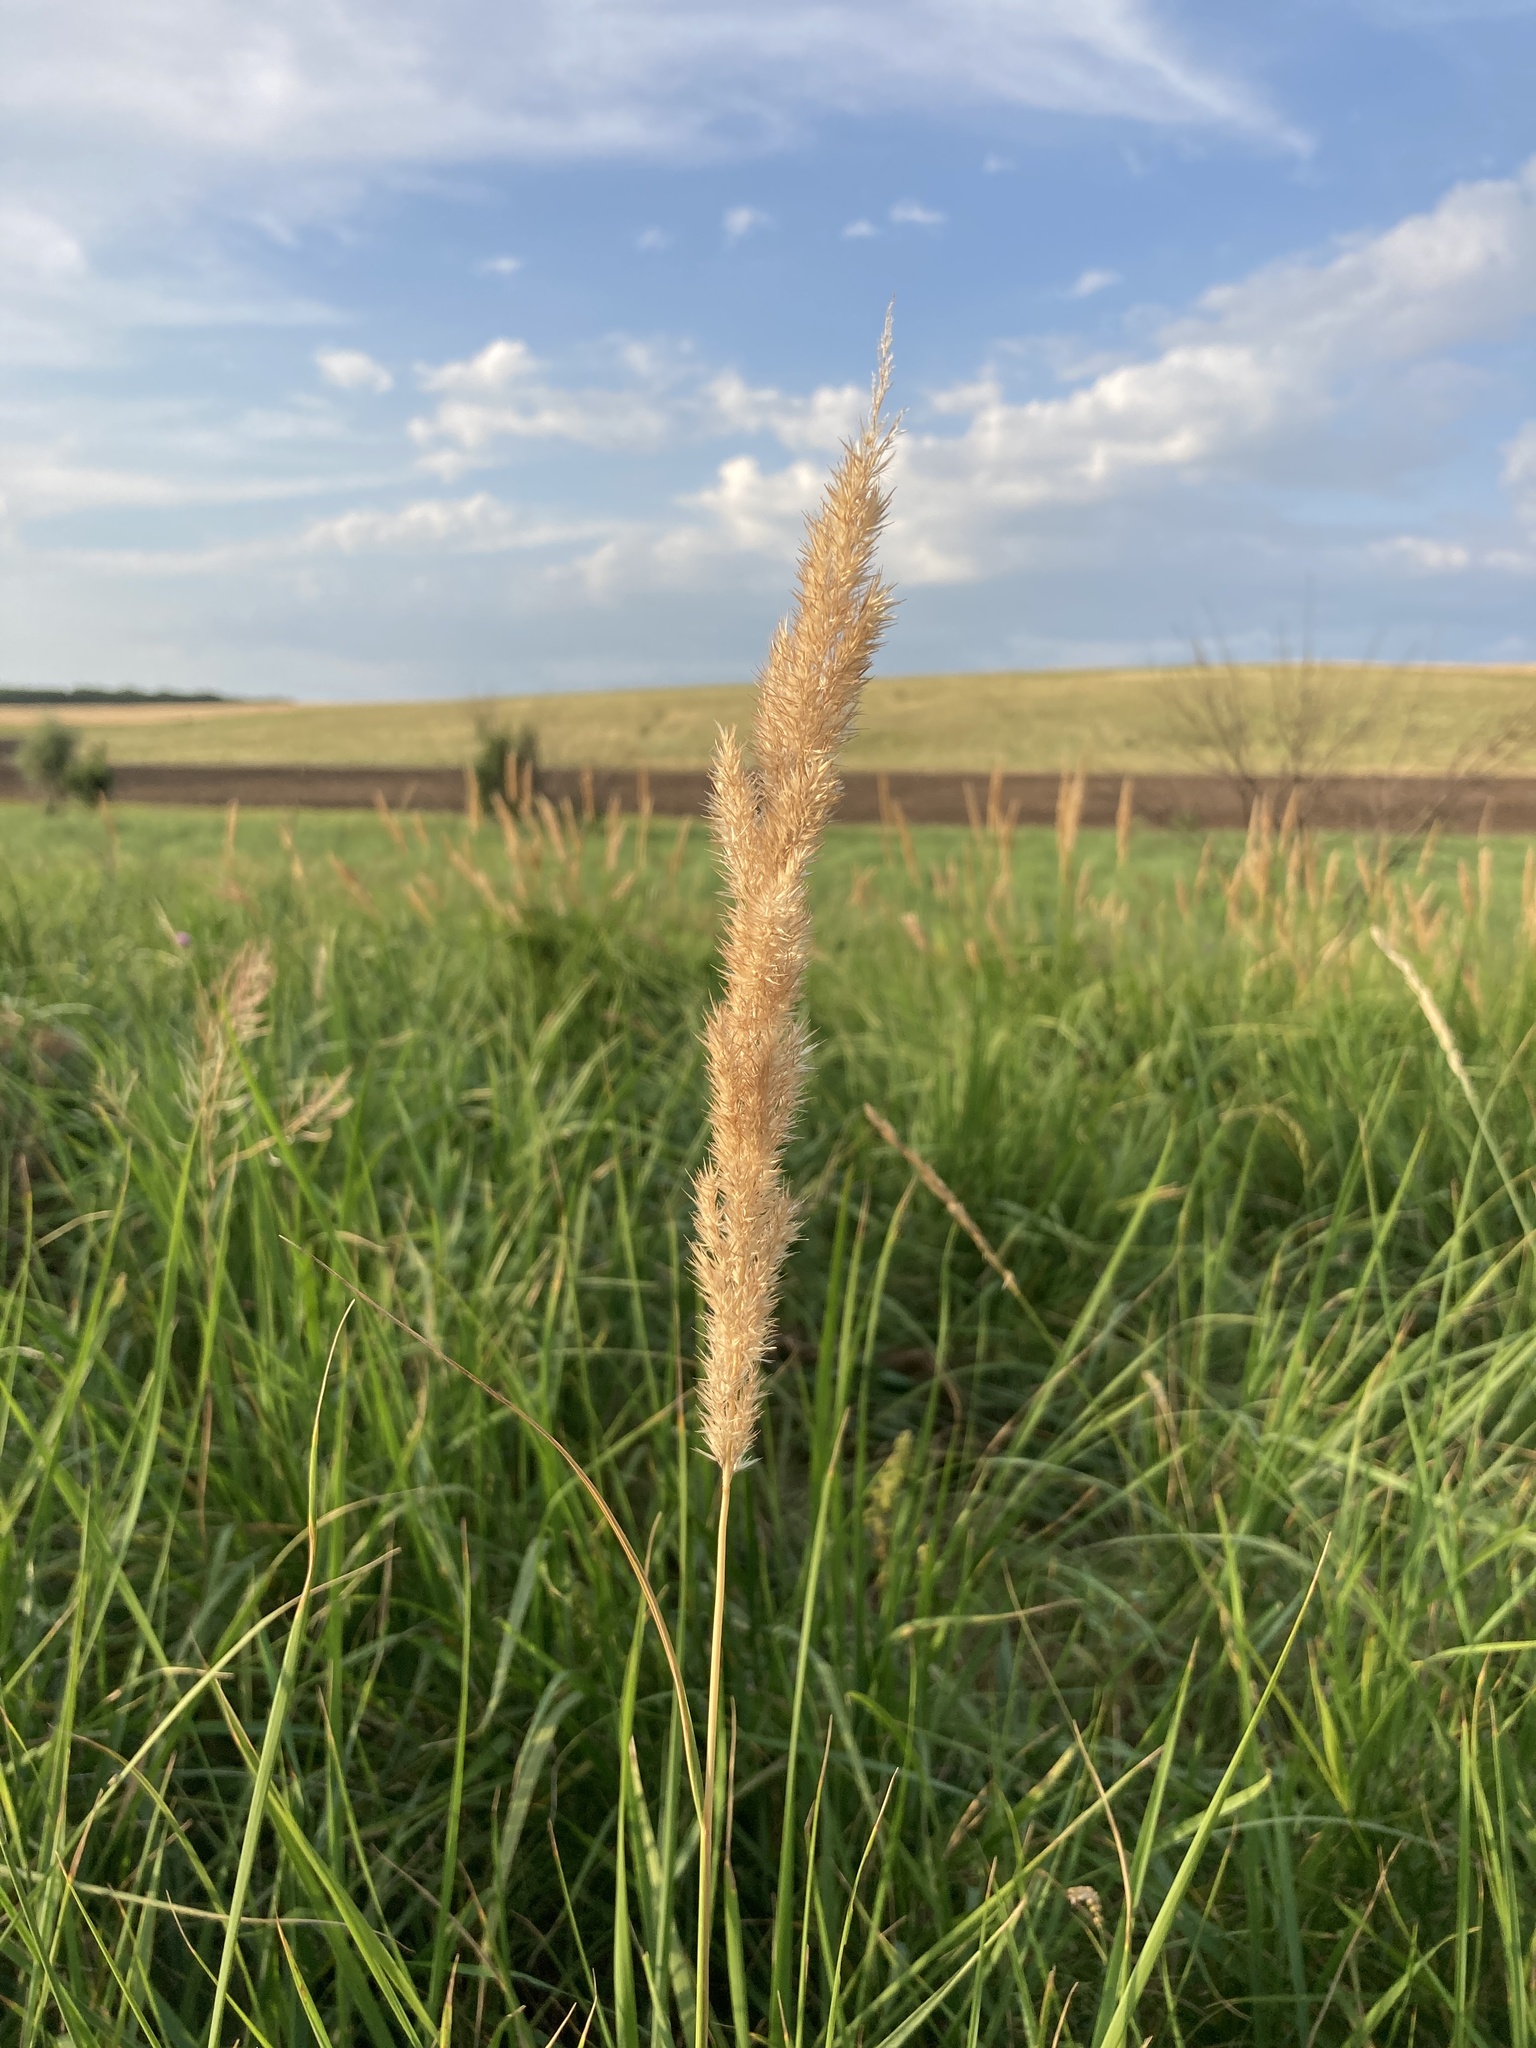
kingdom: Plantae
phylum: Tracheophyta
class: Liliopsida
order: Poales
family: Poaceae
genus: Calamagrostis
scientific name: Calamagrostis epigejos
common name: Wood small-reed
